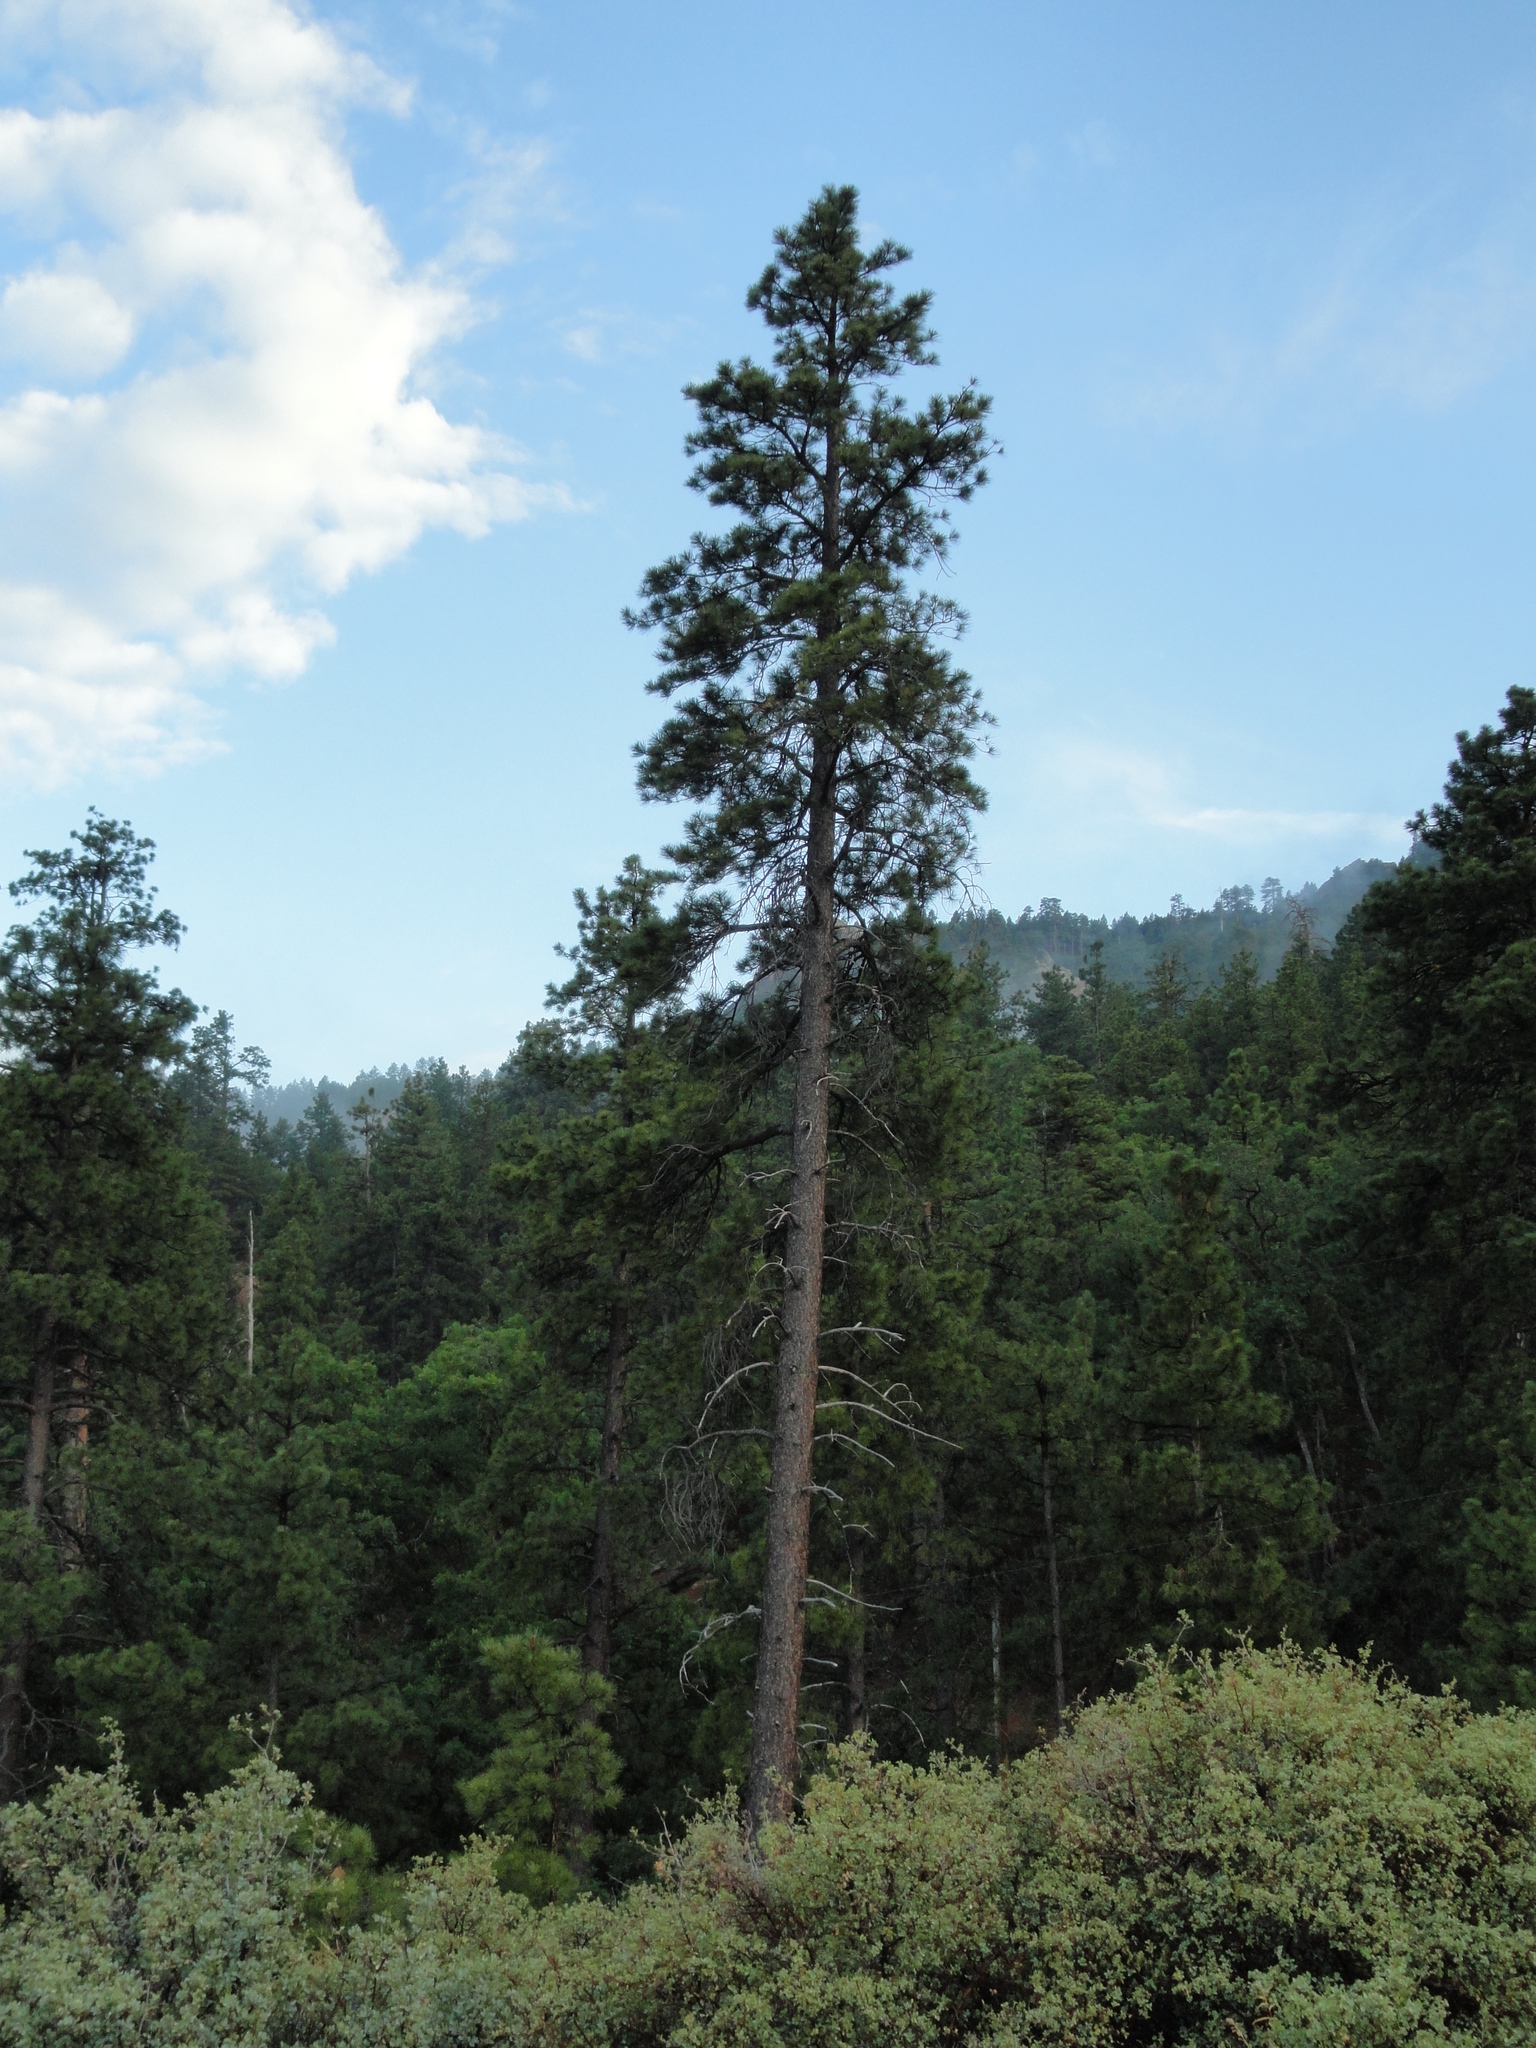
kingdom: Plantae
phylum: Tracheophyta
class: Pinopsida
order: Pinales
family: Pinaceae
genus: Pinus
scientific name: Pinus ponderosa
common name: Western yellow-pine
